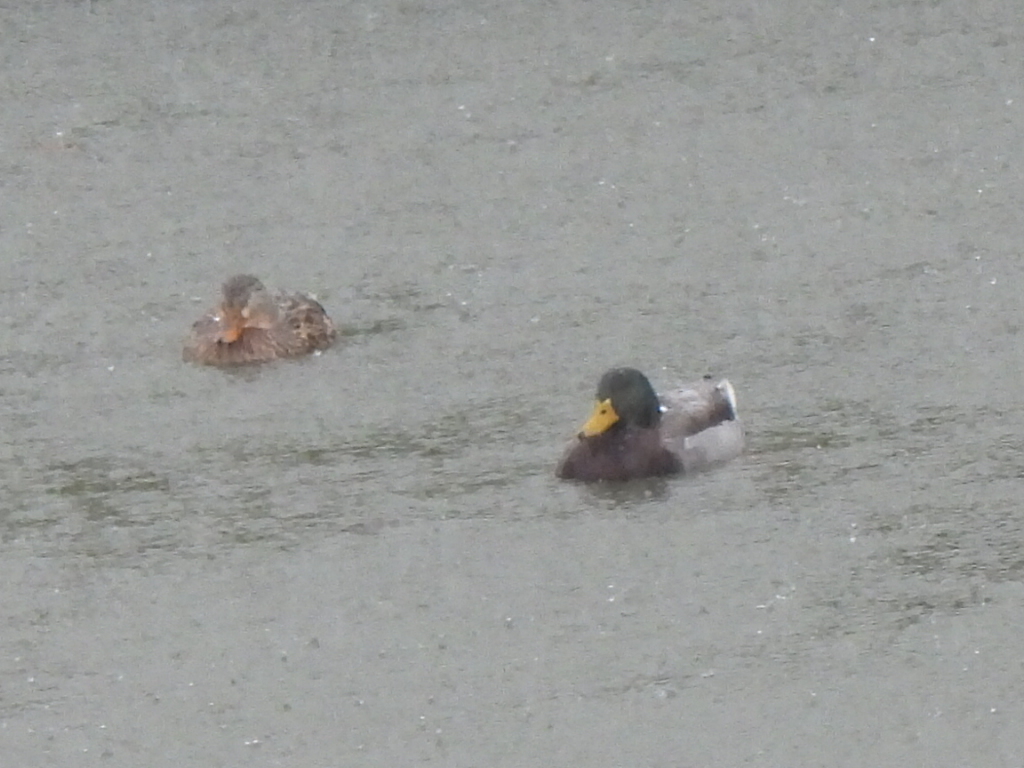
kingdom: Animalia
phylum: Chordata
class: Aves
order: Anseriformes
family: Anatidae
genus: Anas
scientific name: Anas platyrhynchos
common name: Mallard
